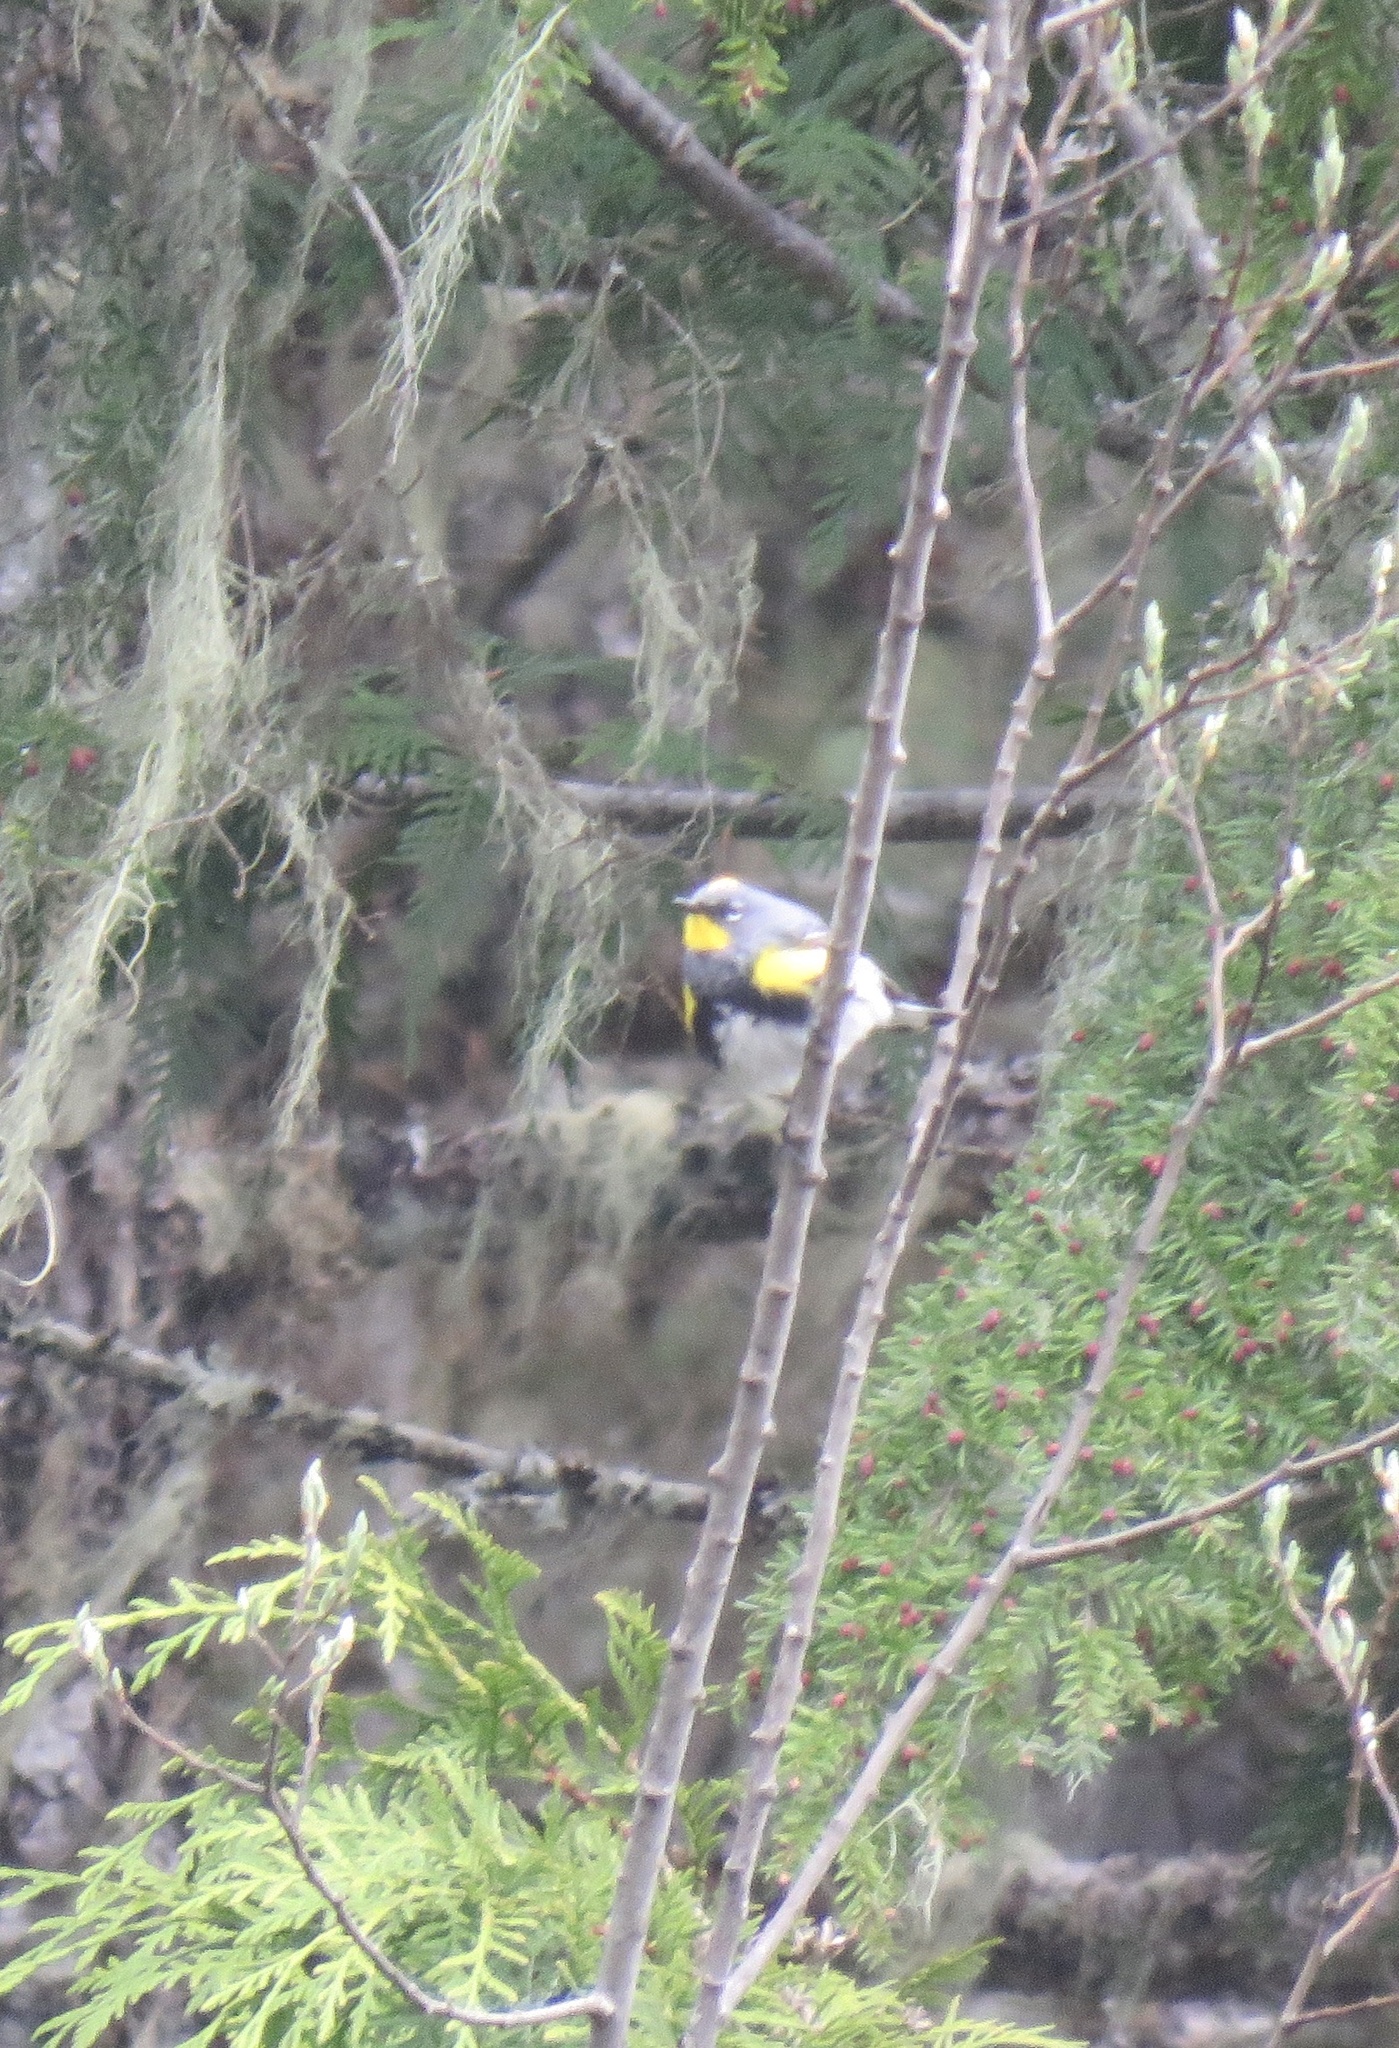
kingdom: Animalia
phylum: Chordata
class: Aves
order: Passeriformes
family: Parulidae
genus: Setophaga
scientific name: Setophaga coronata
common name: Myrtle warbler
